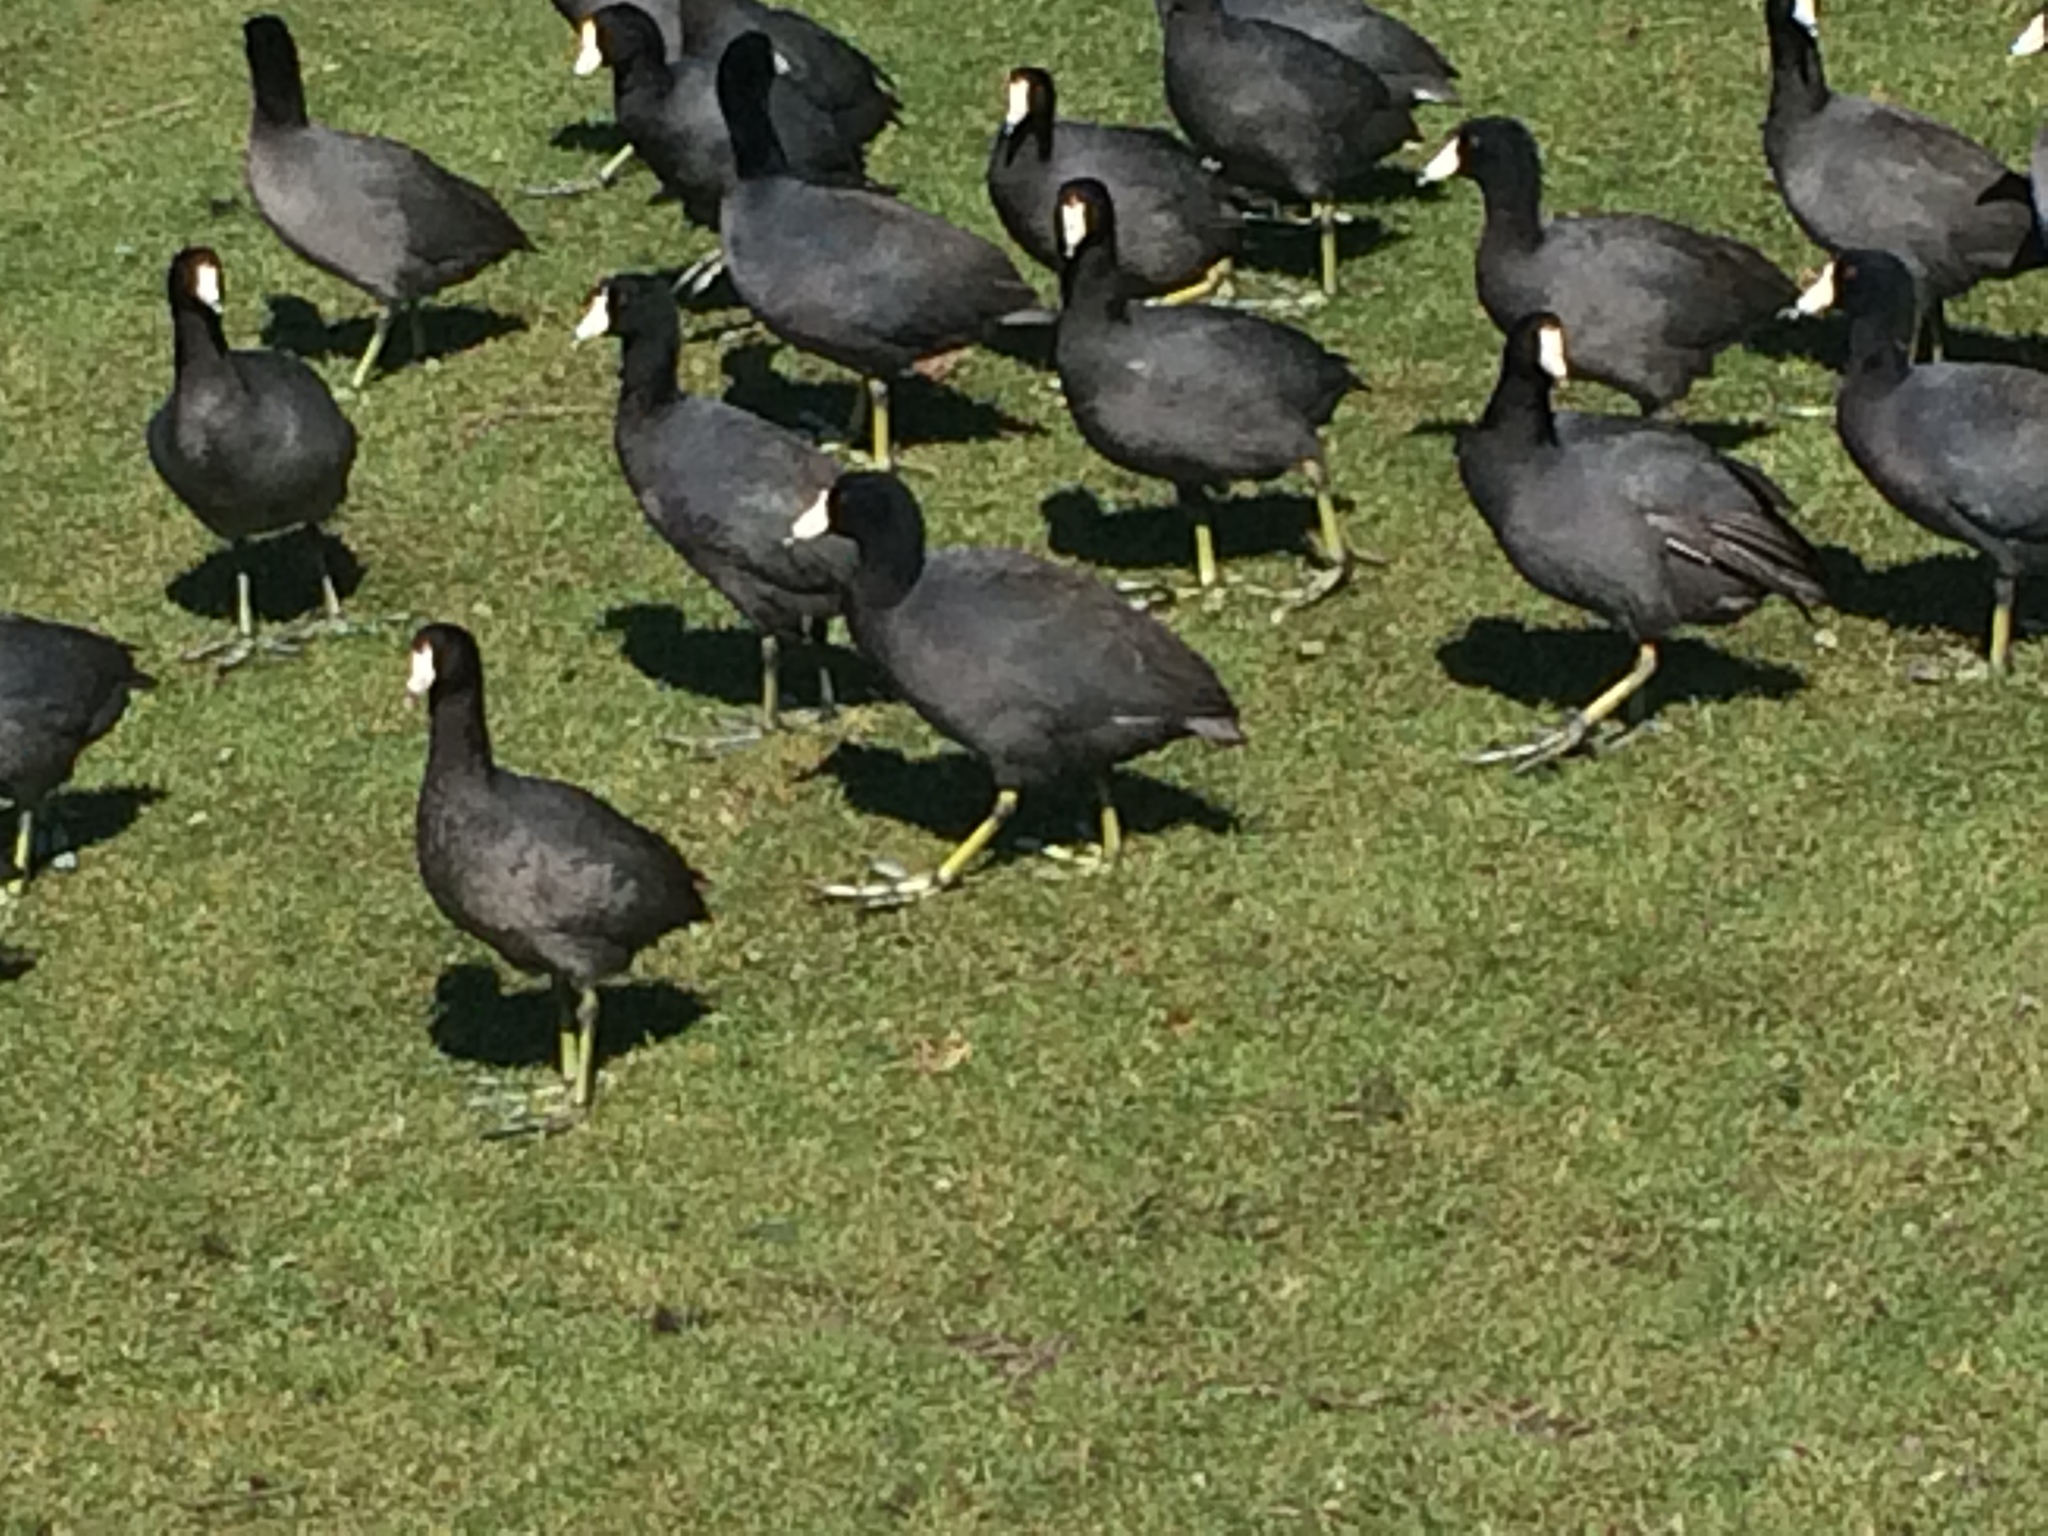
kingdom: Animalia
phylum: Chordata
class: Aves
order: Gruiformes
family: Rallidae
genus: Fulica
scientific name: Fulica americana
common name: American coot
